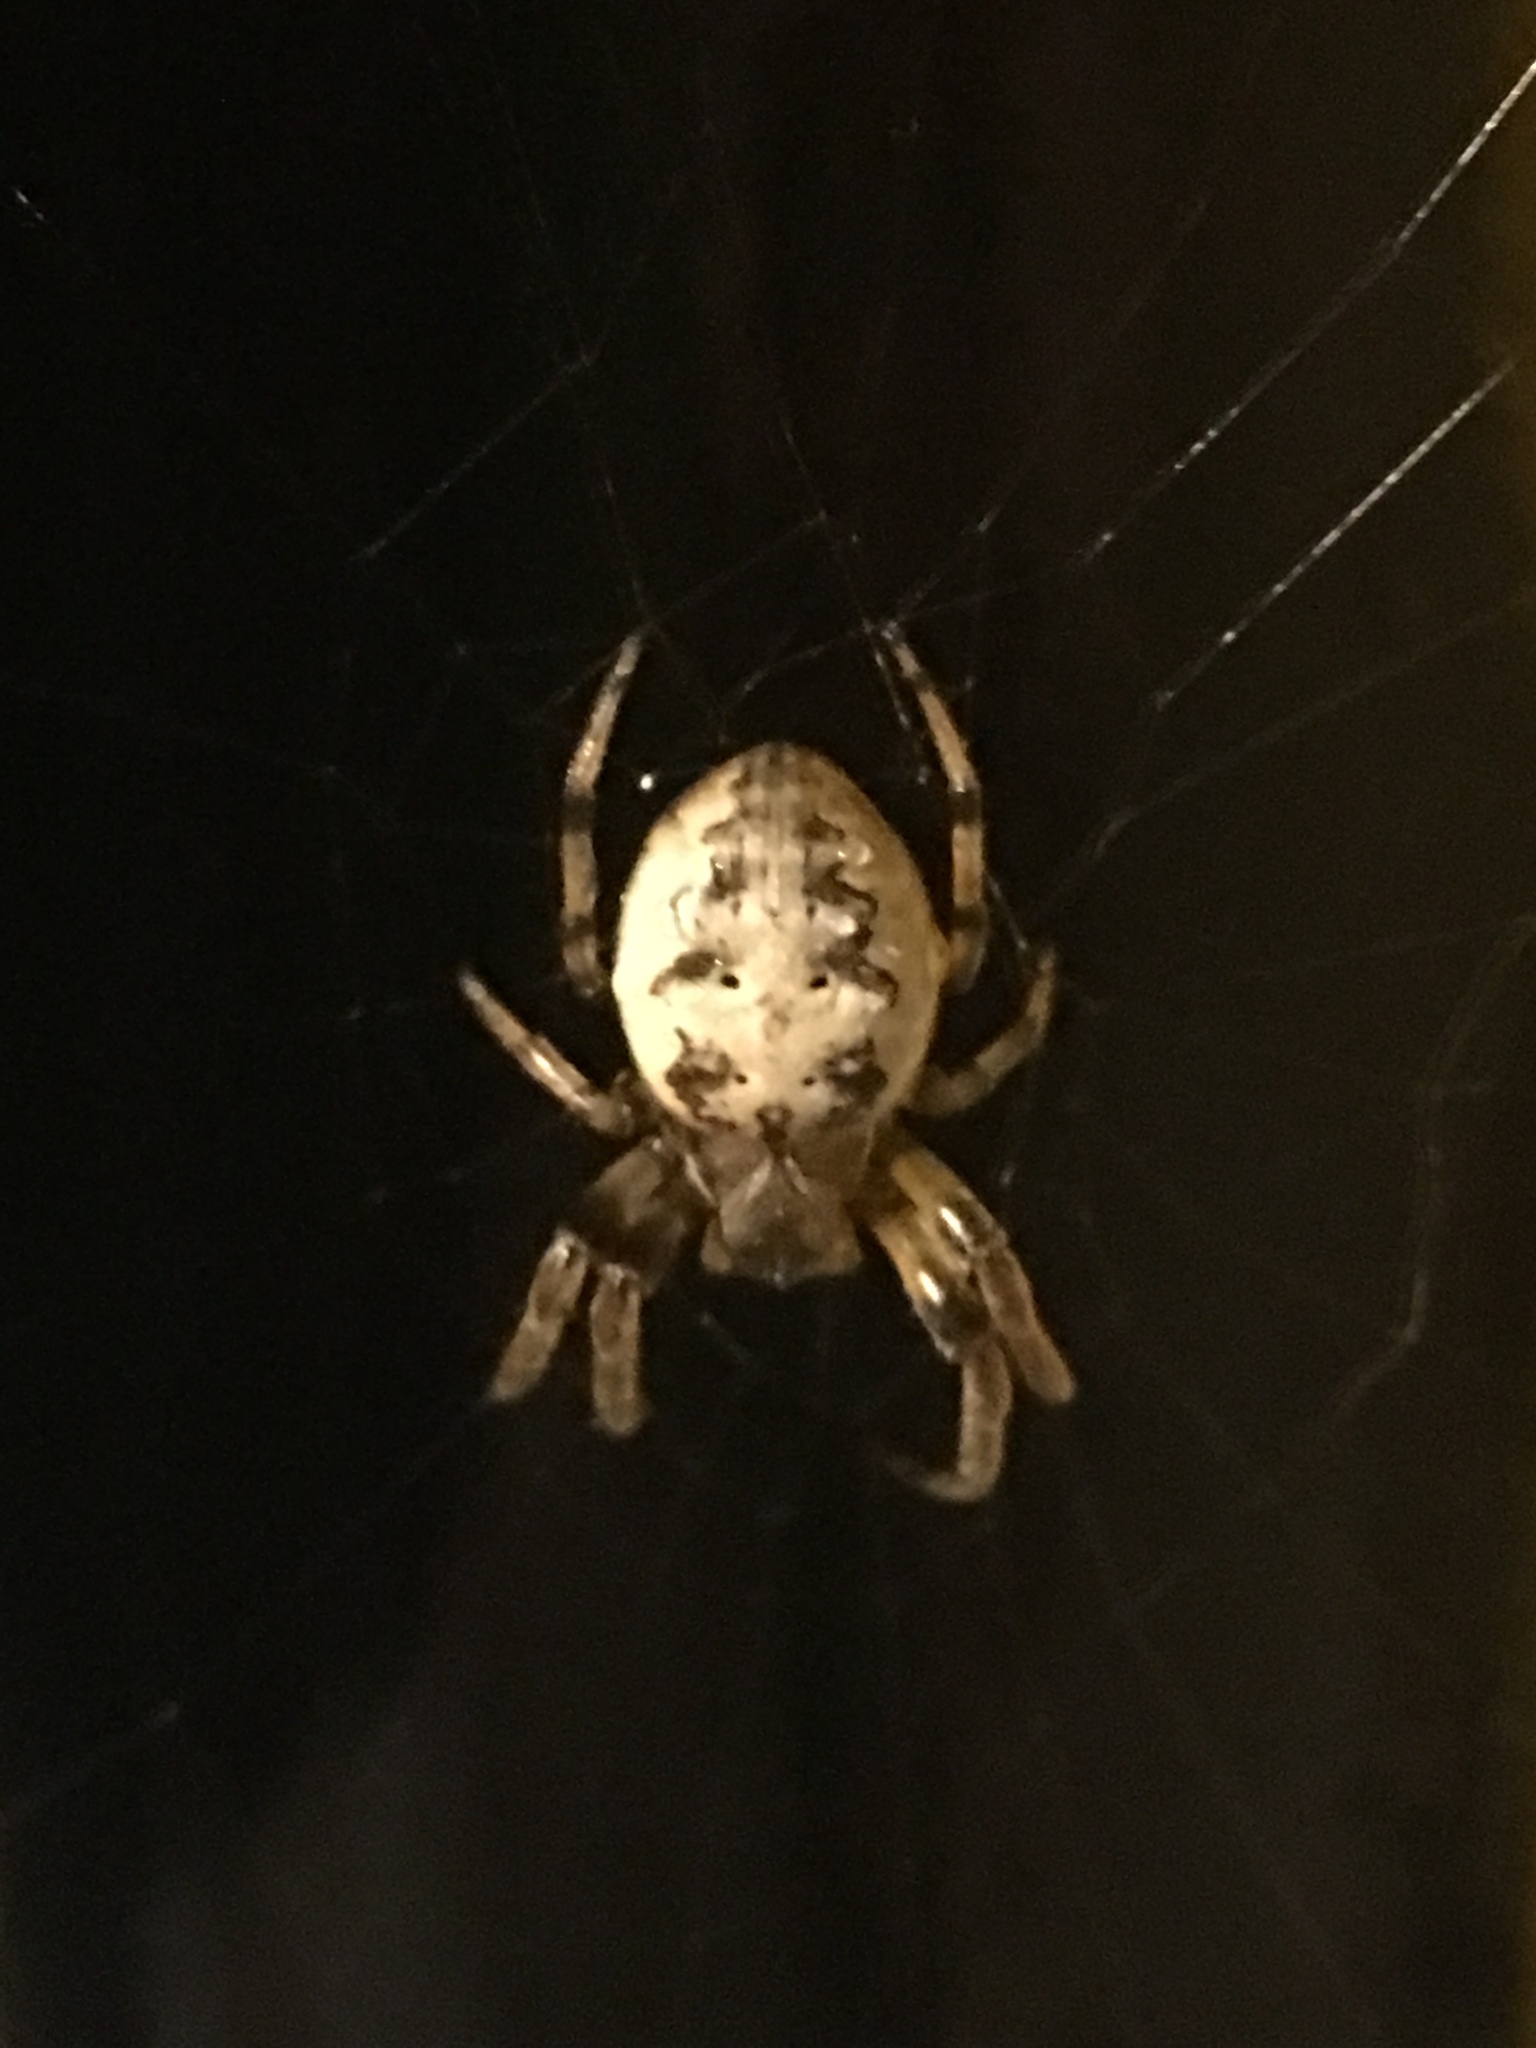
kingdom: Animalia
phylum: Arthropoda
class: Arachnida
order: Araneae
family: Araneidae
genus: Larinioides
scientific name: Larinioides cornutus
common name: Furrow orbweaver
